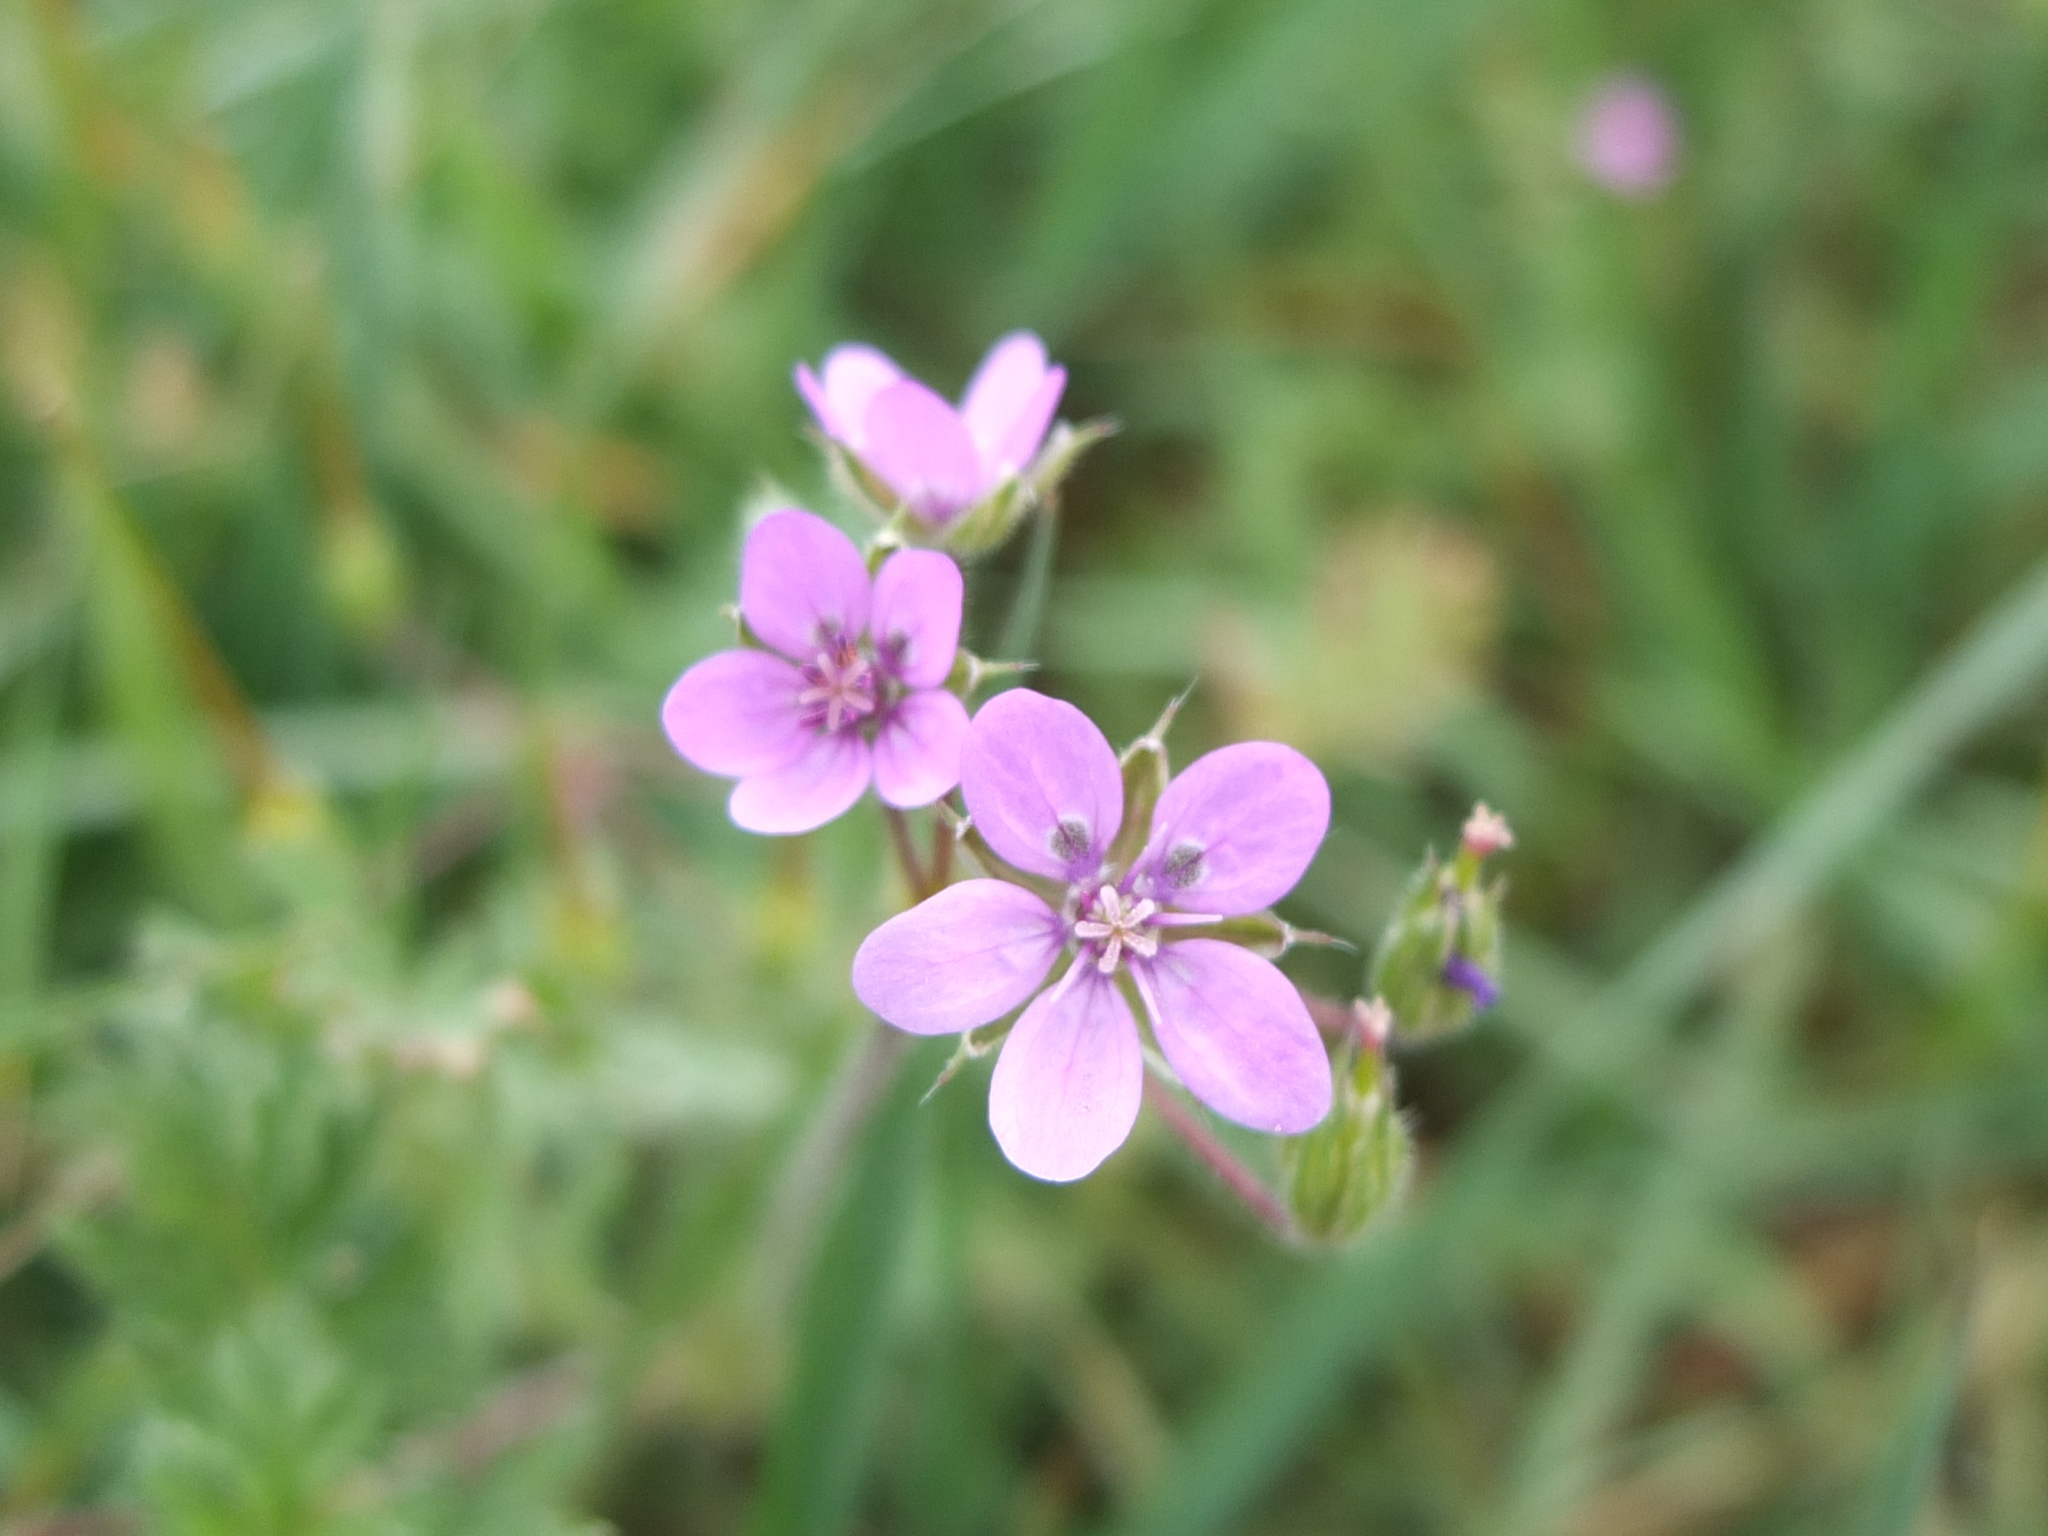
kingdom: Plantae
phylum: Tracheophyta
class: Magnoliopsida
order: Geraniales
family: Geraniaceae
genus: Erodium
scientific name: Erodium cicutarium
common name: Common stork's-bill
